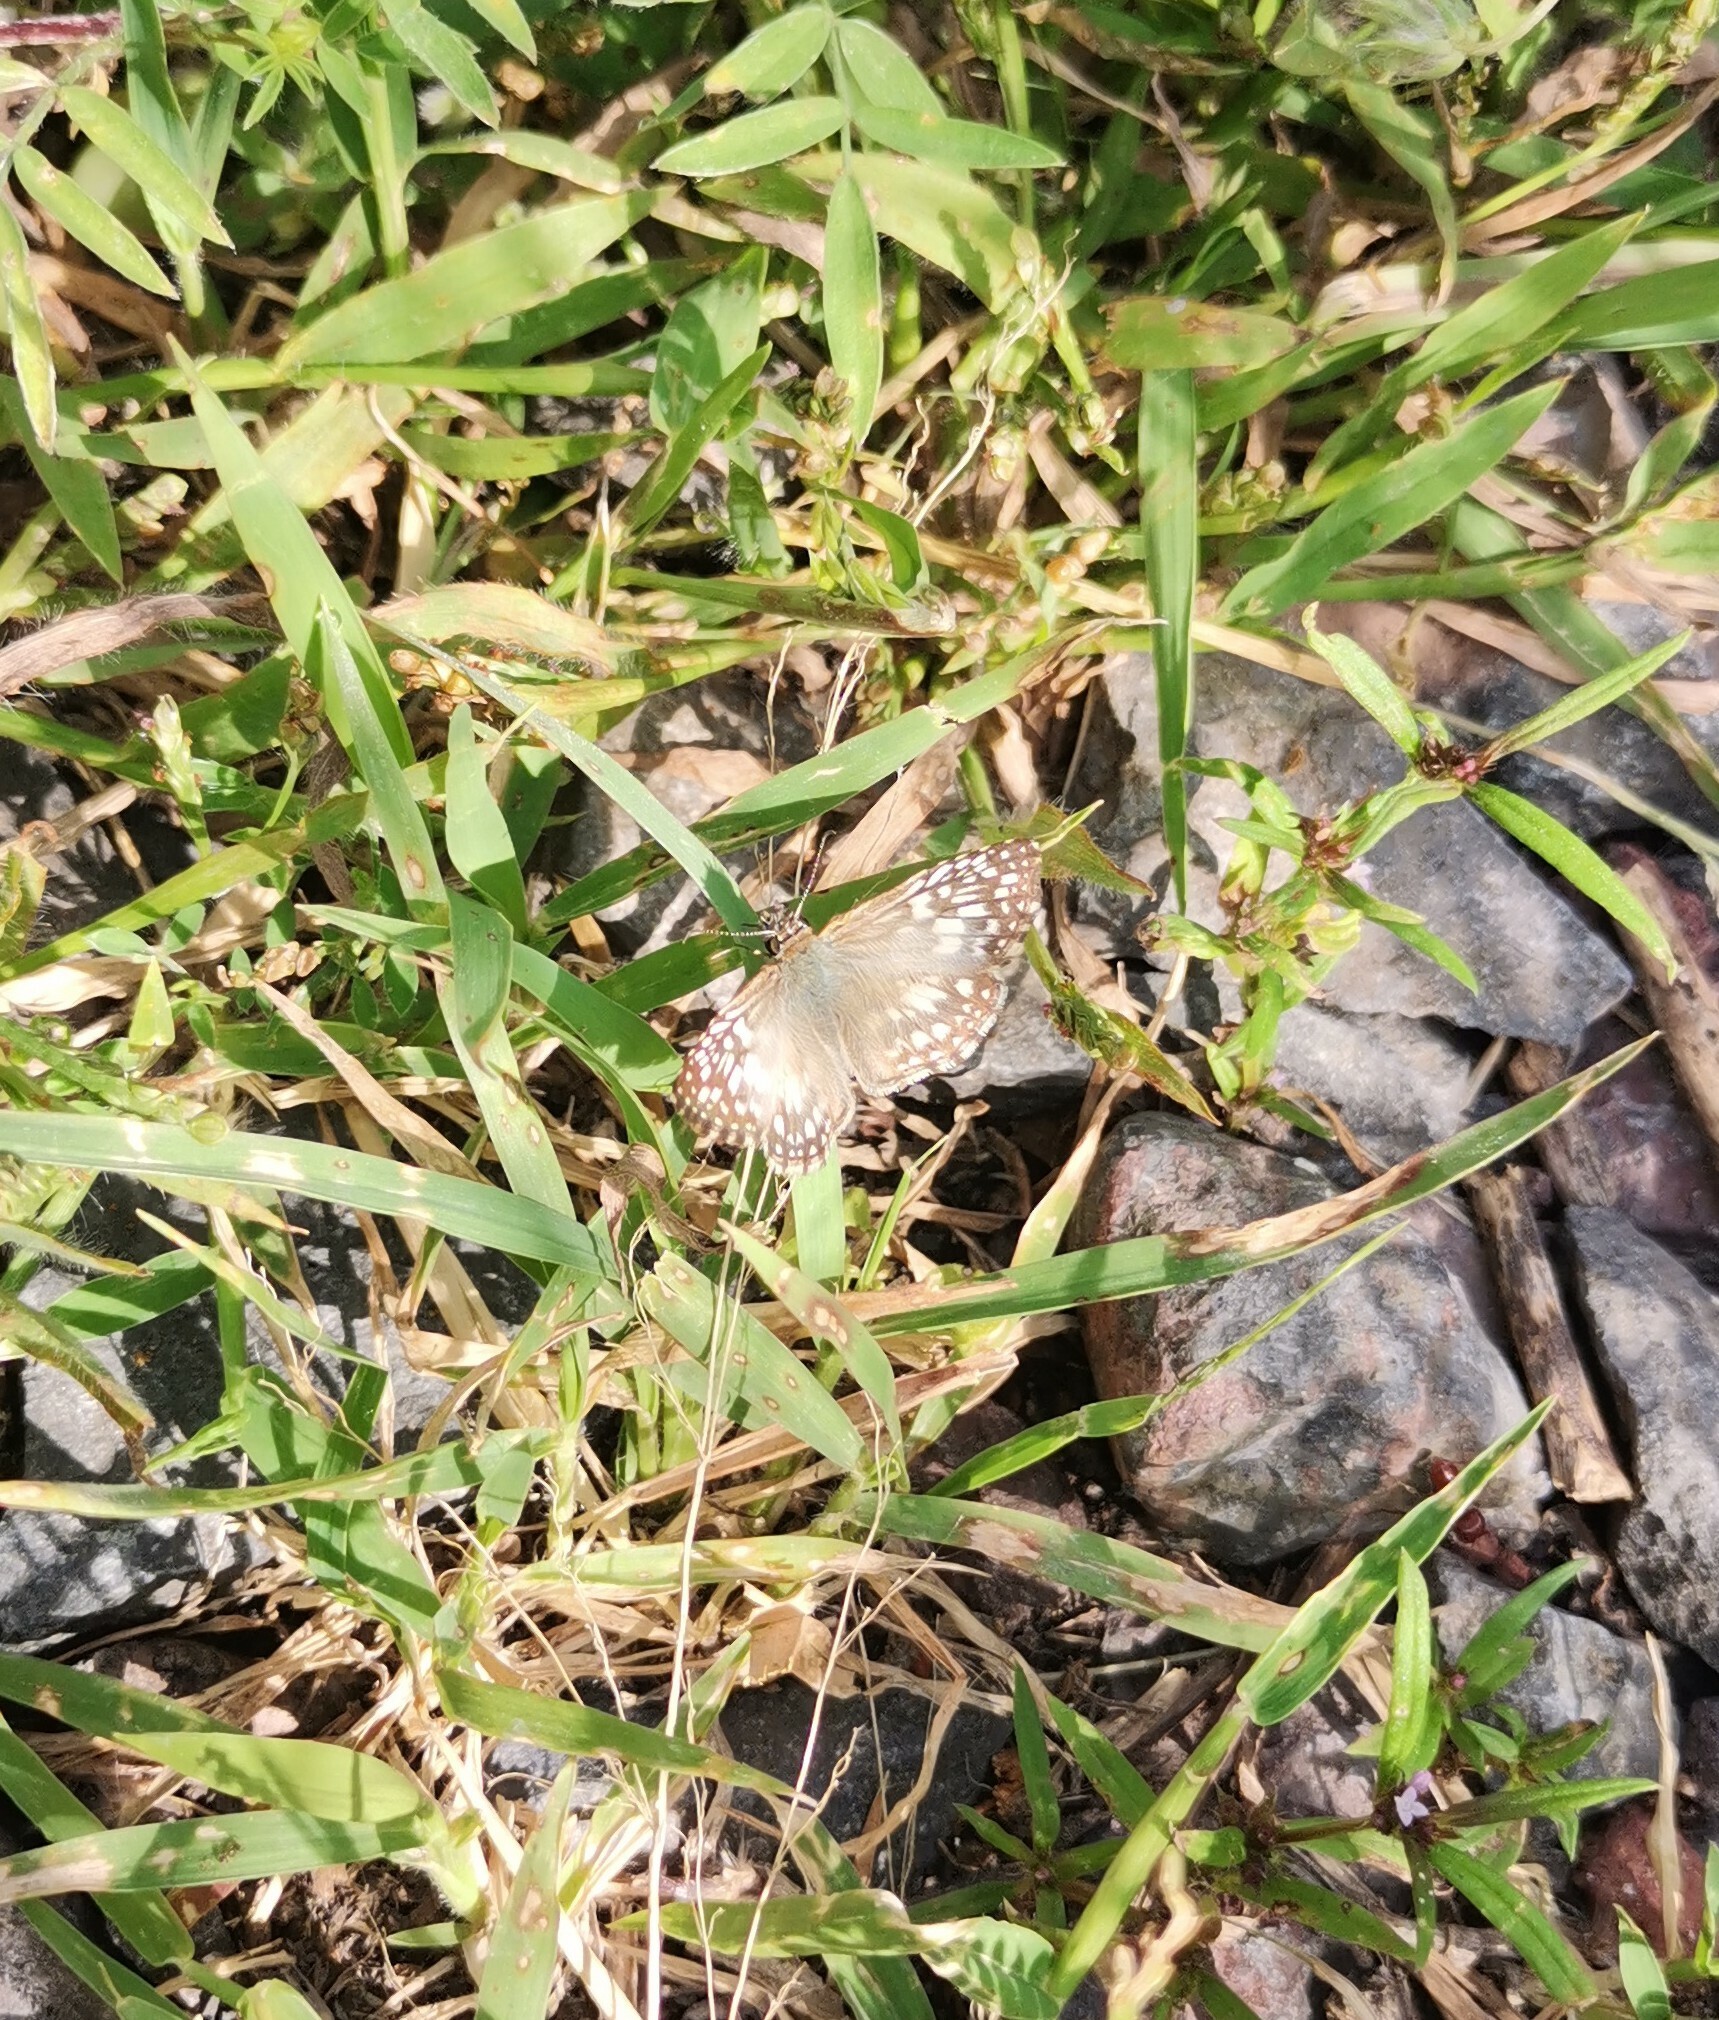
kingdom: Animalia
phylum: Arthropoda
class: Insecta
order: Lepidoptera
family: Hesperiidae
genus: Pyrgus
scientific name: Pyrgus oileus
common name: Tropical checkered-skipper
